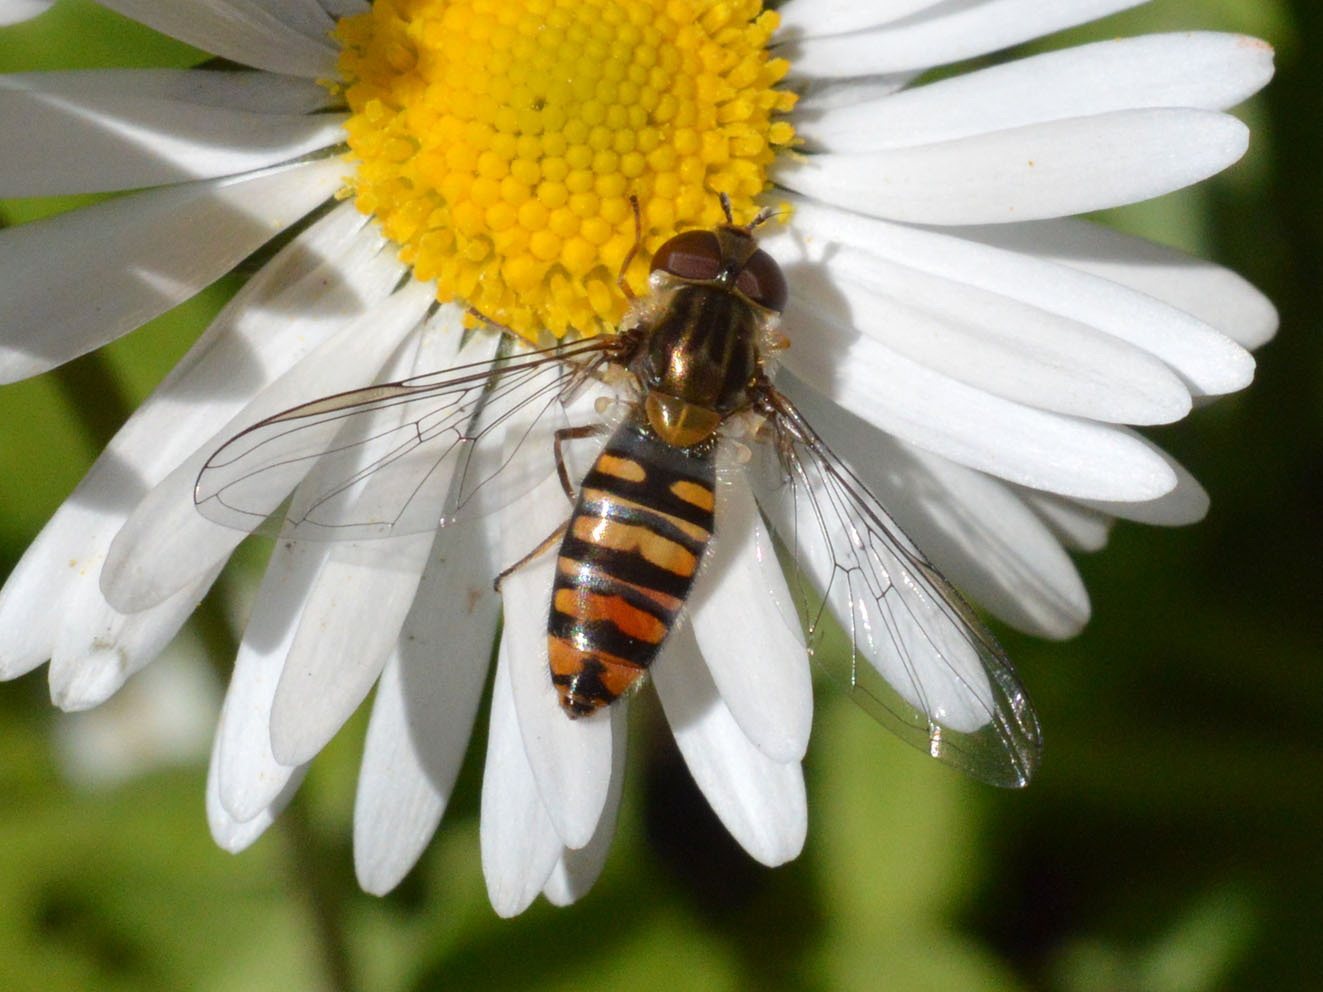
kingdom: Animalia
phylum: Arthropoda
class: Insecta
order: Diptera
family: Syrphidae
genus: Episyrphus
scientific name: Episyrphus balteatus
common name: Marmalade hoverfly
